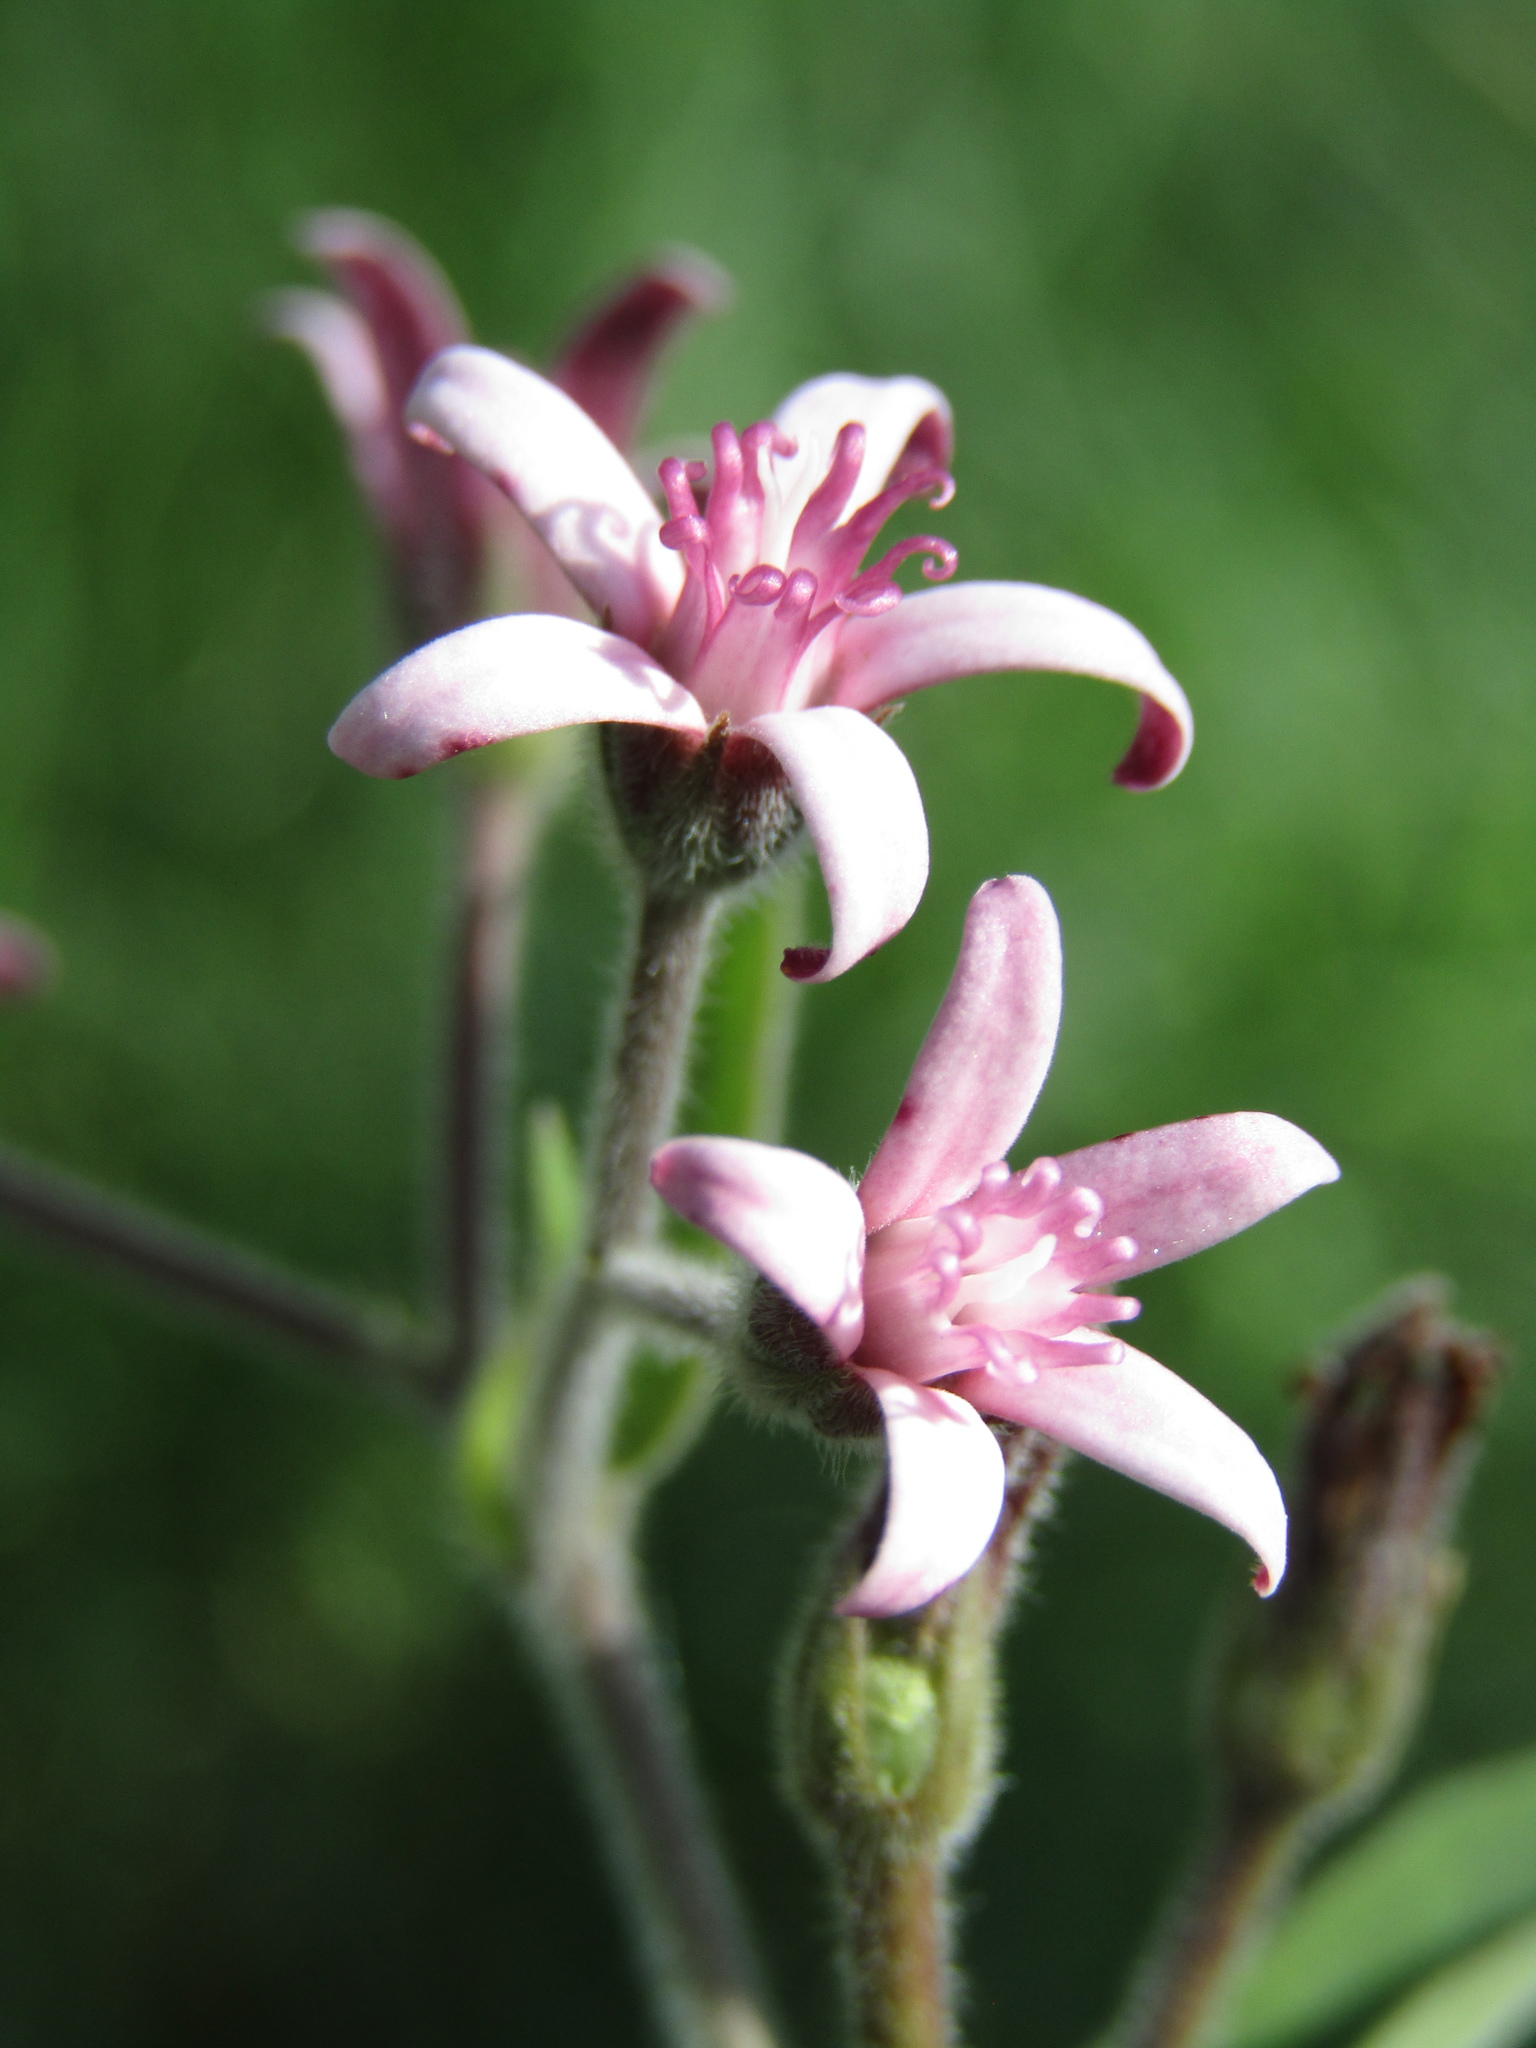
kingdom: Plantae
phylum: Tracheophyta
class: Magnoliopsida
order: Gentianales
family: Apocynaceae
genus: Oxypetalum
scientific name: Oxypetalum solanoides
